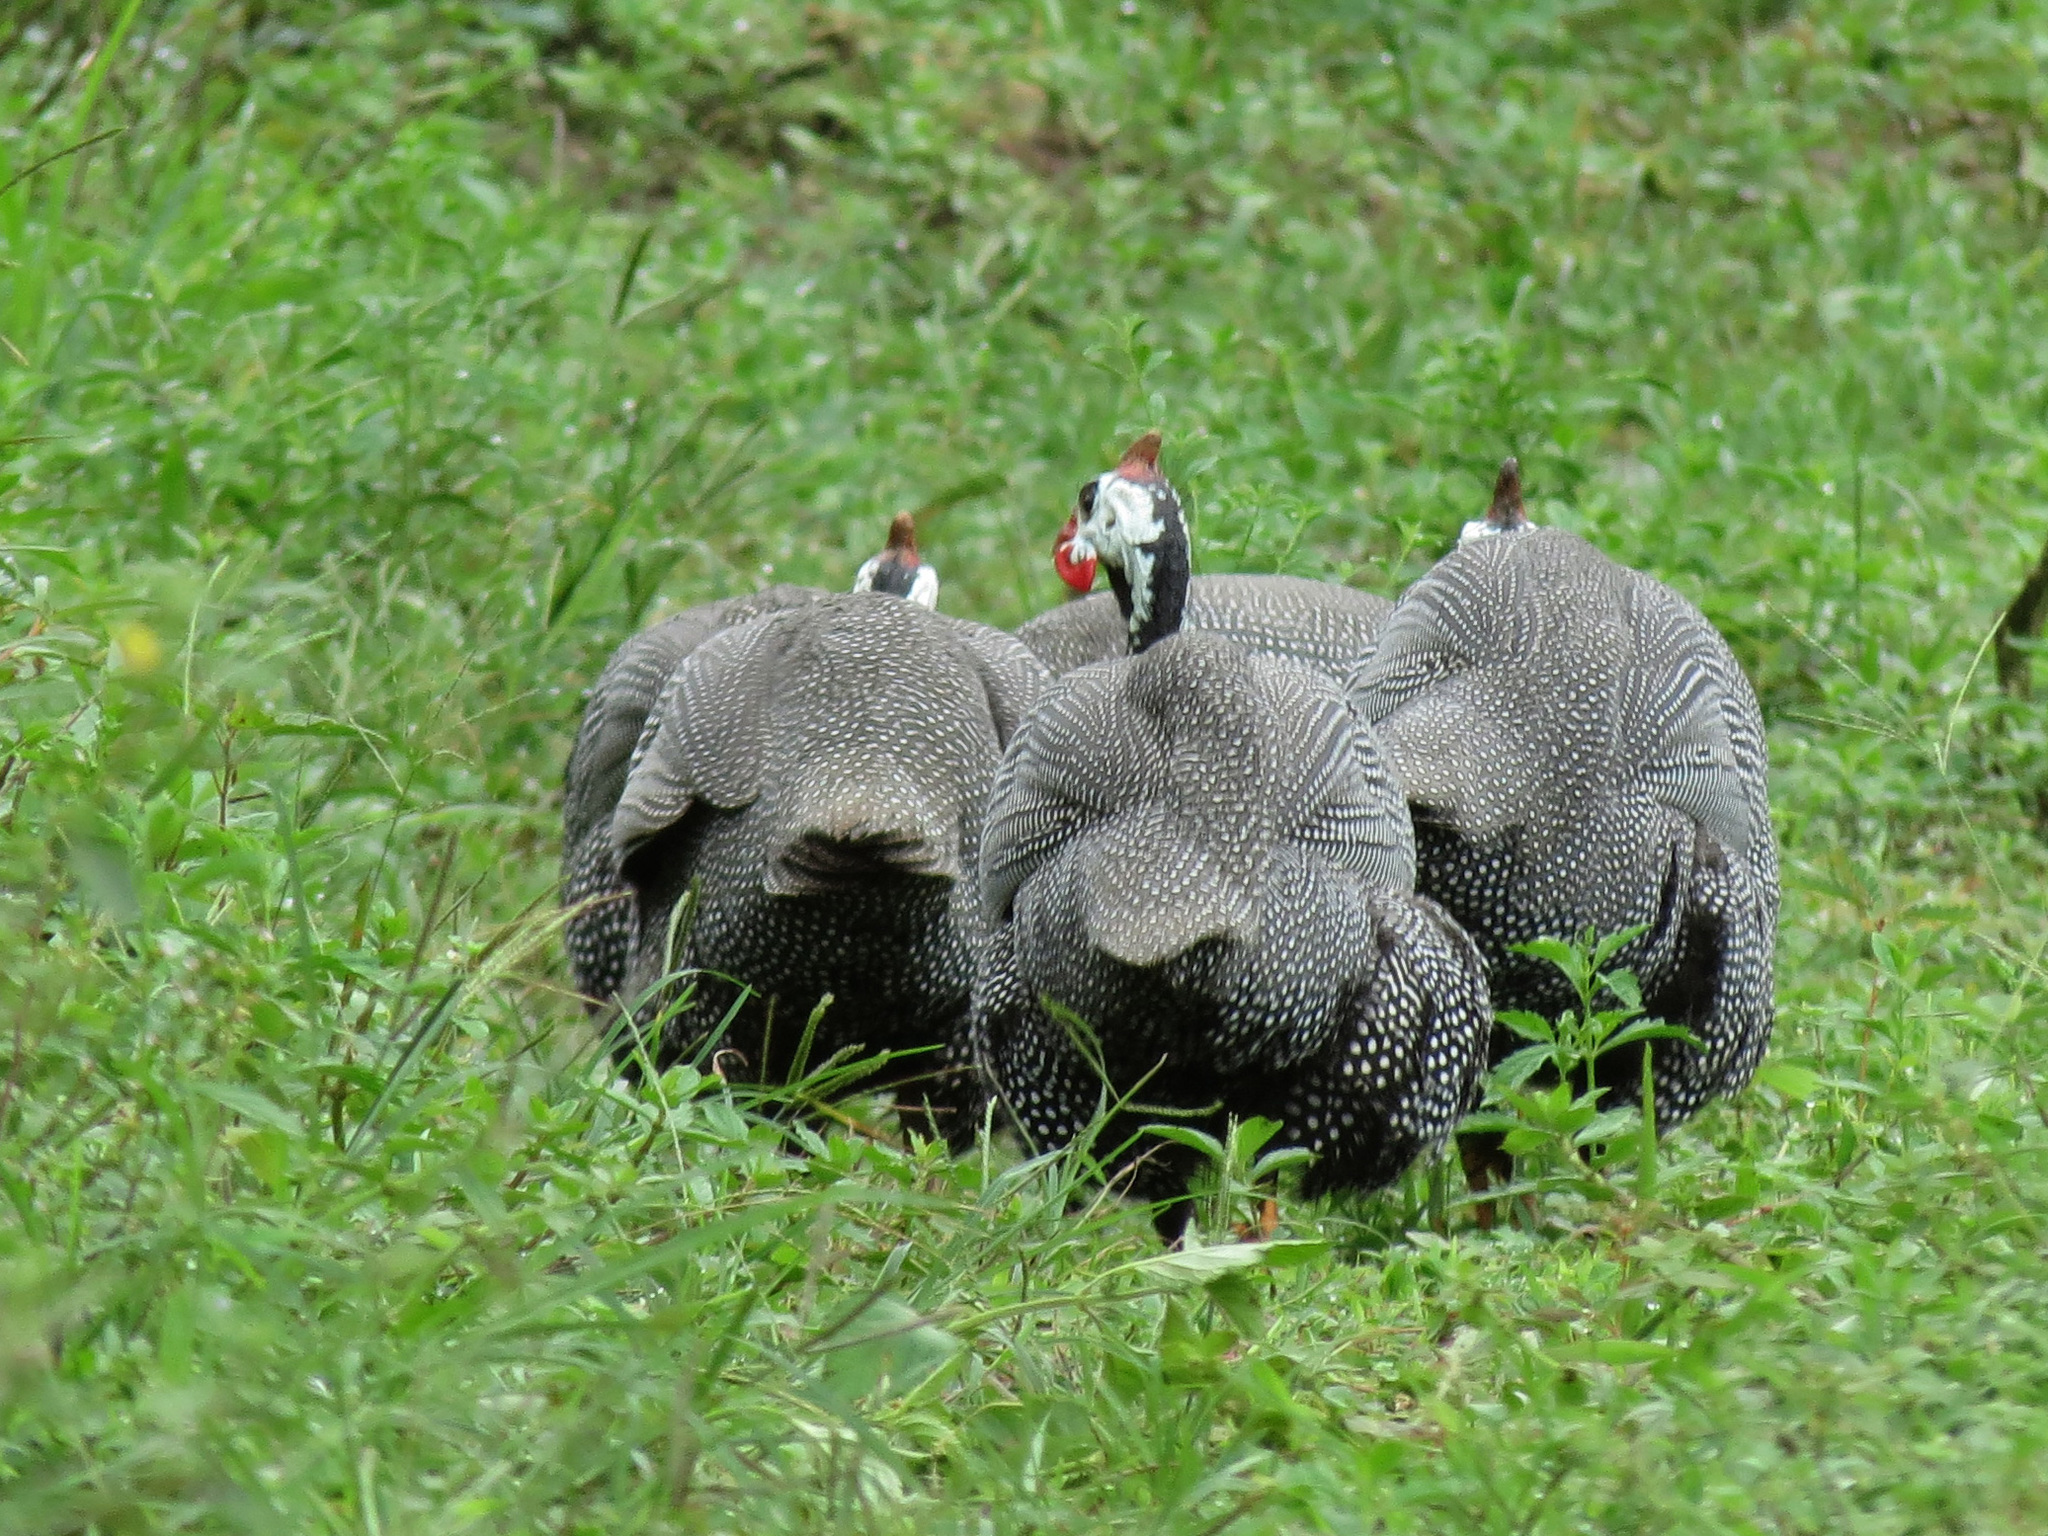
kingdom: Animalia
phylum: Chordata
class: Aves
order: Galliformes
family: Numididae
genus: Numida
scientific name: Numida meleagris
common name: Helmeted guineafowl
